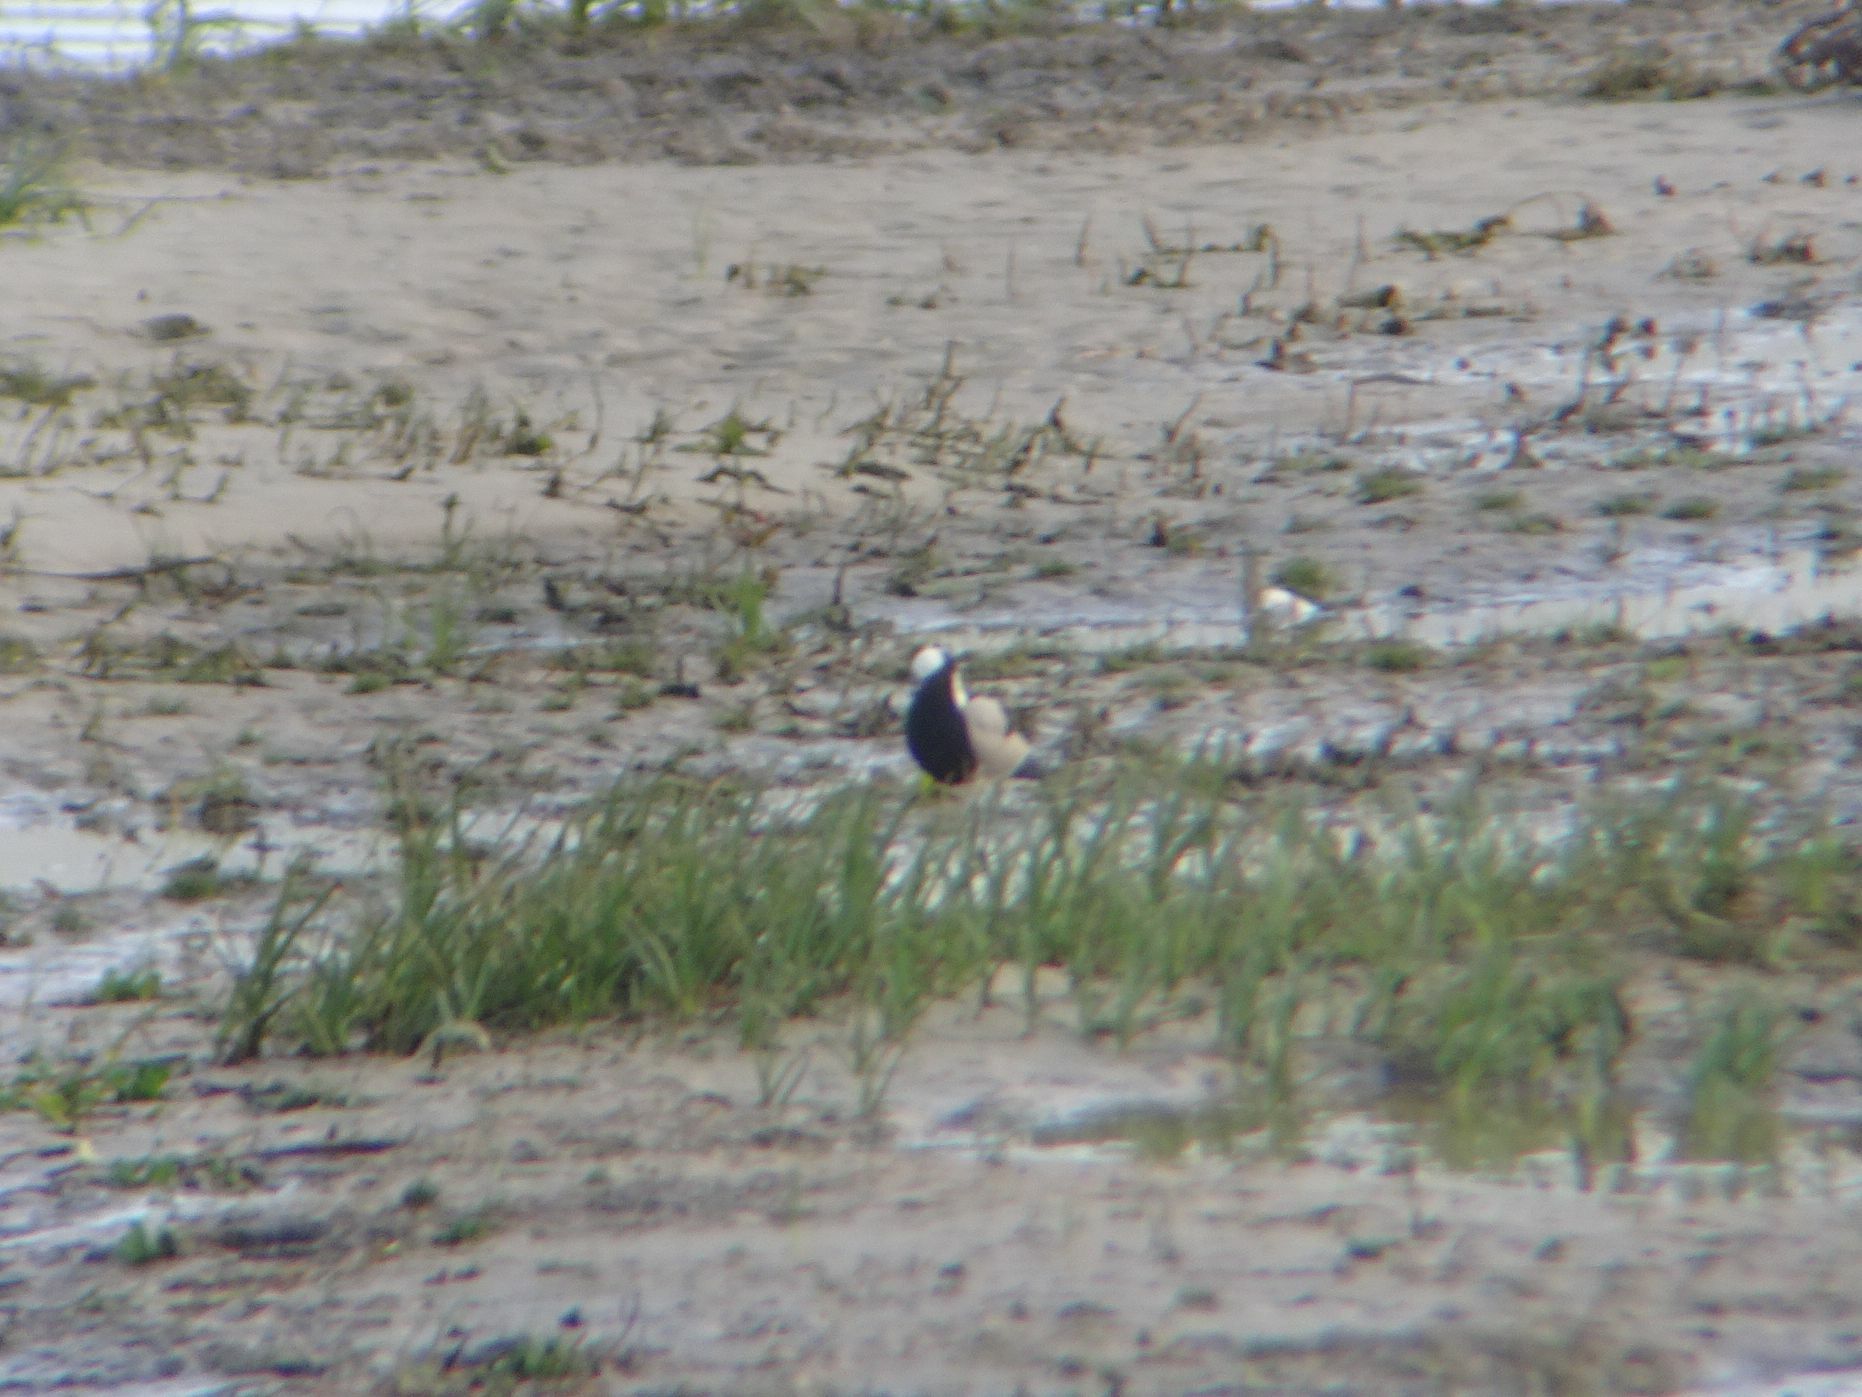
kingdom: Animalia
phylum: Chordata
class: Aves
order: Charadriiformes
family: Charadriidae
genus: Vanellus
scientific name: Vanellus armatus
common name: Blacksmith lapwing
